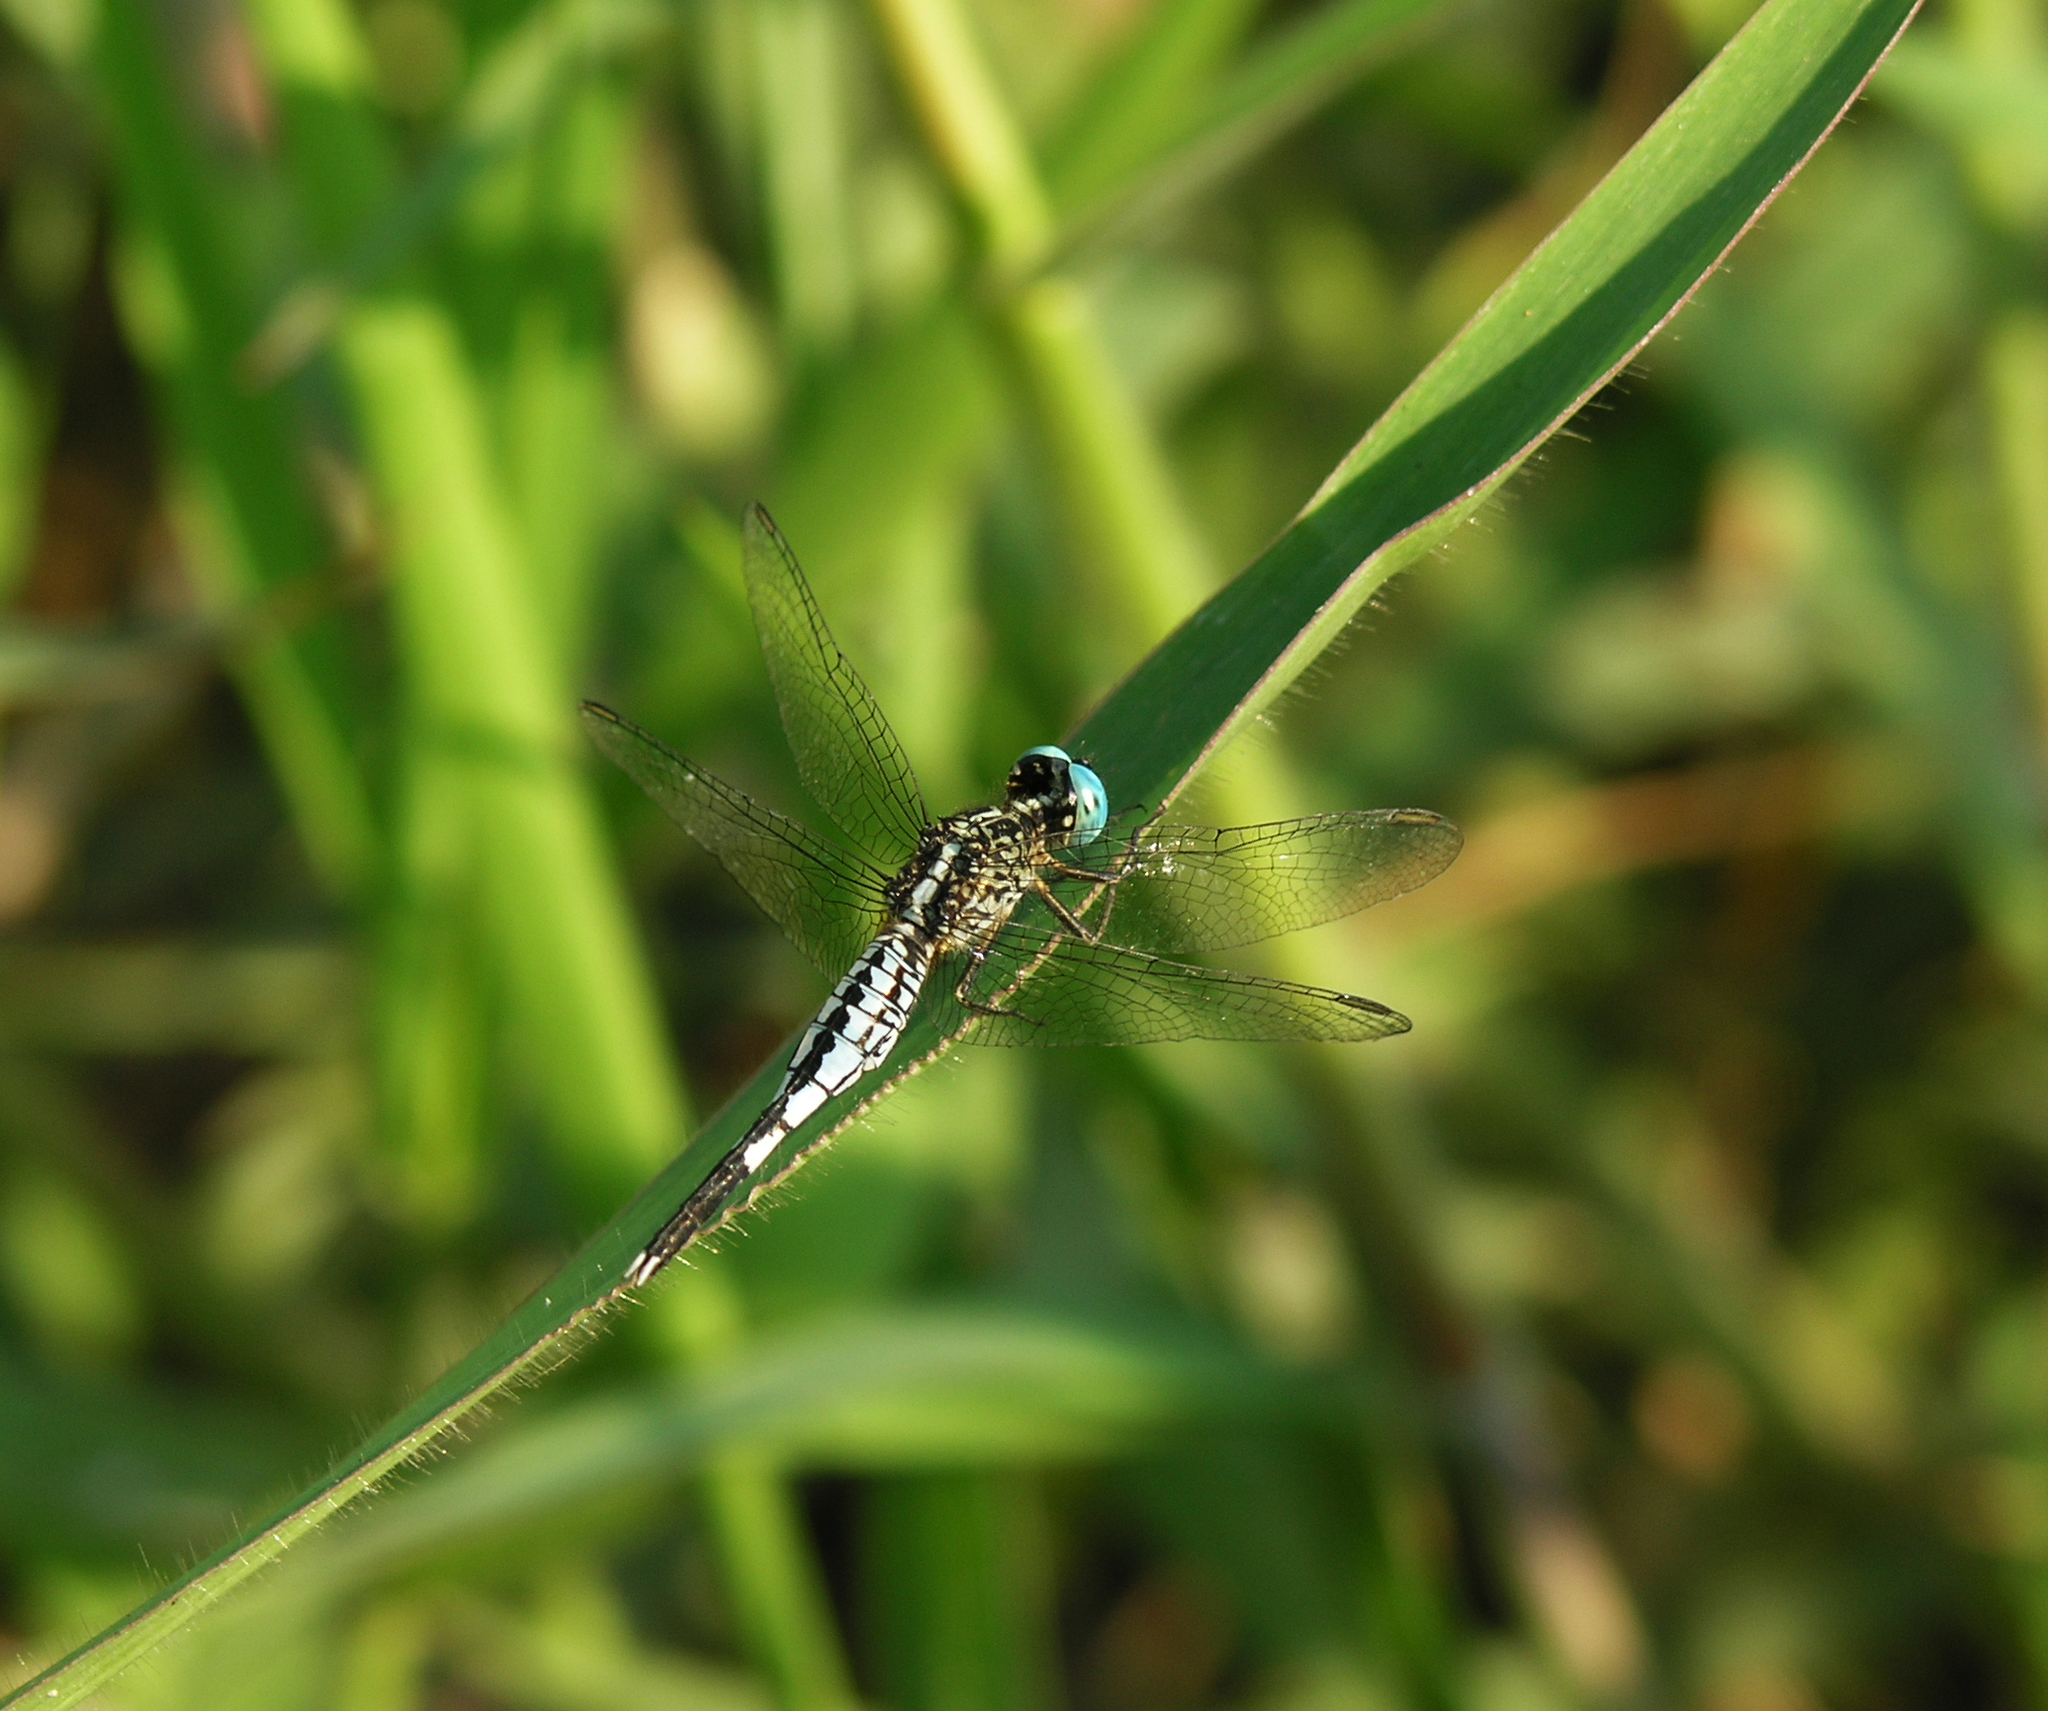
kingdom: Animalia
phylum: Arthropoda
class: Insecta
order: Odonata
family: Libellulidae
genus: Acisoma
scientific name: Acisoma panorpoides
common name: Asian pintail
